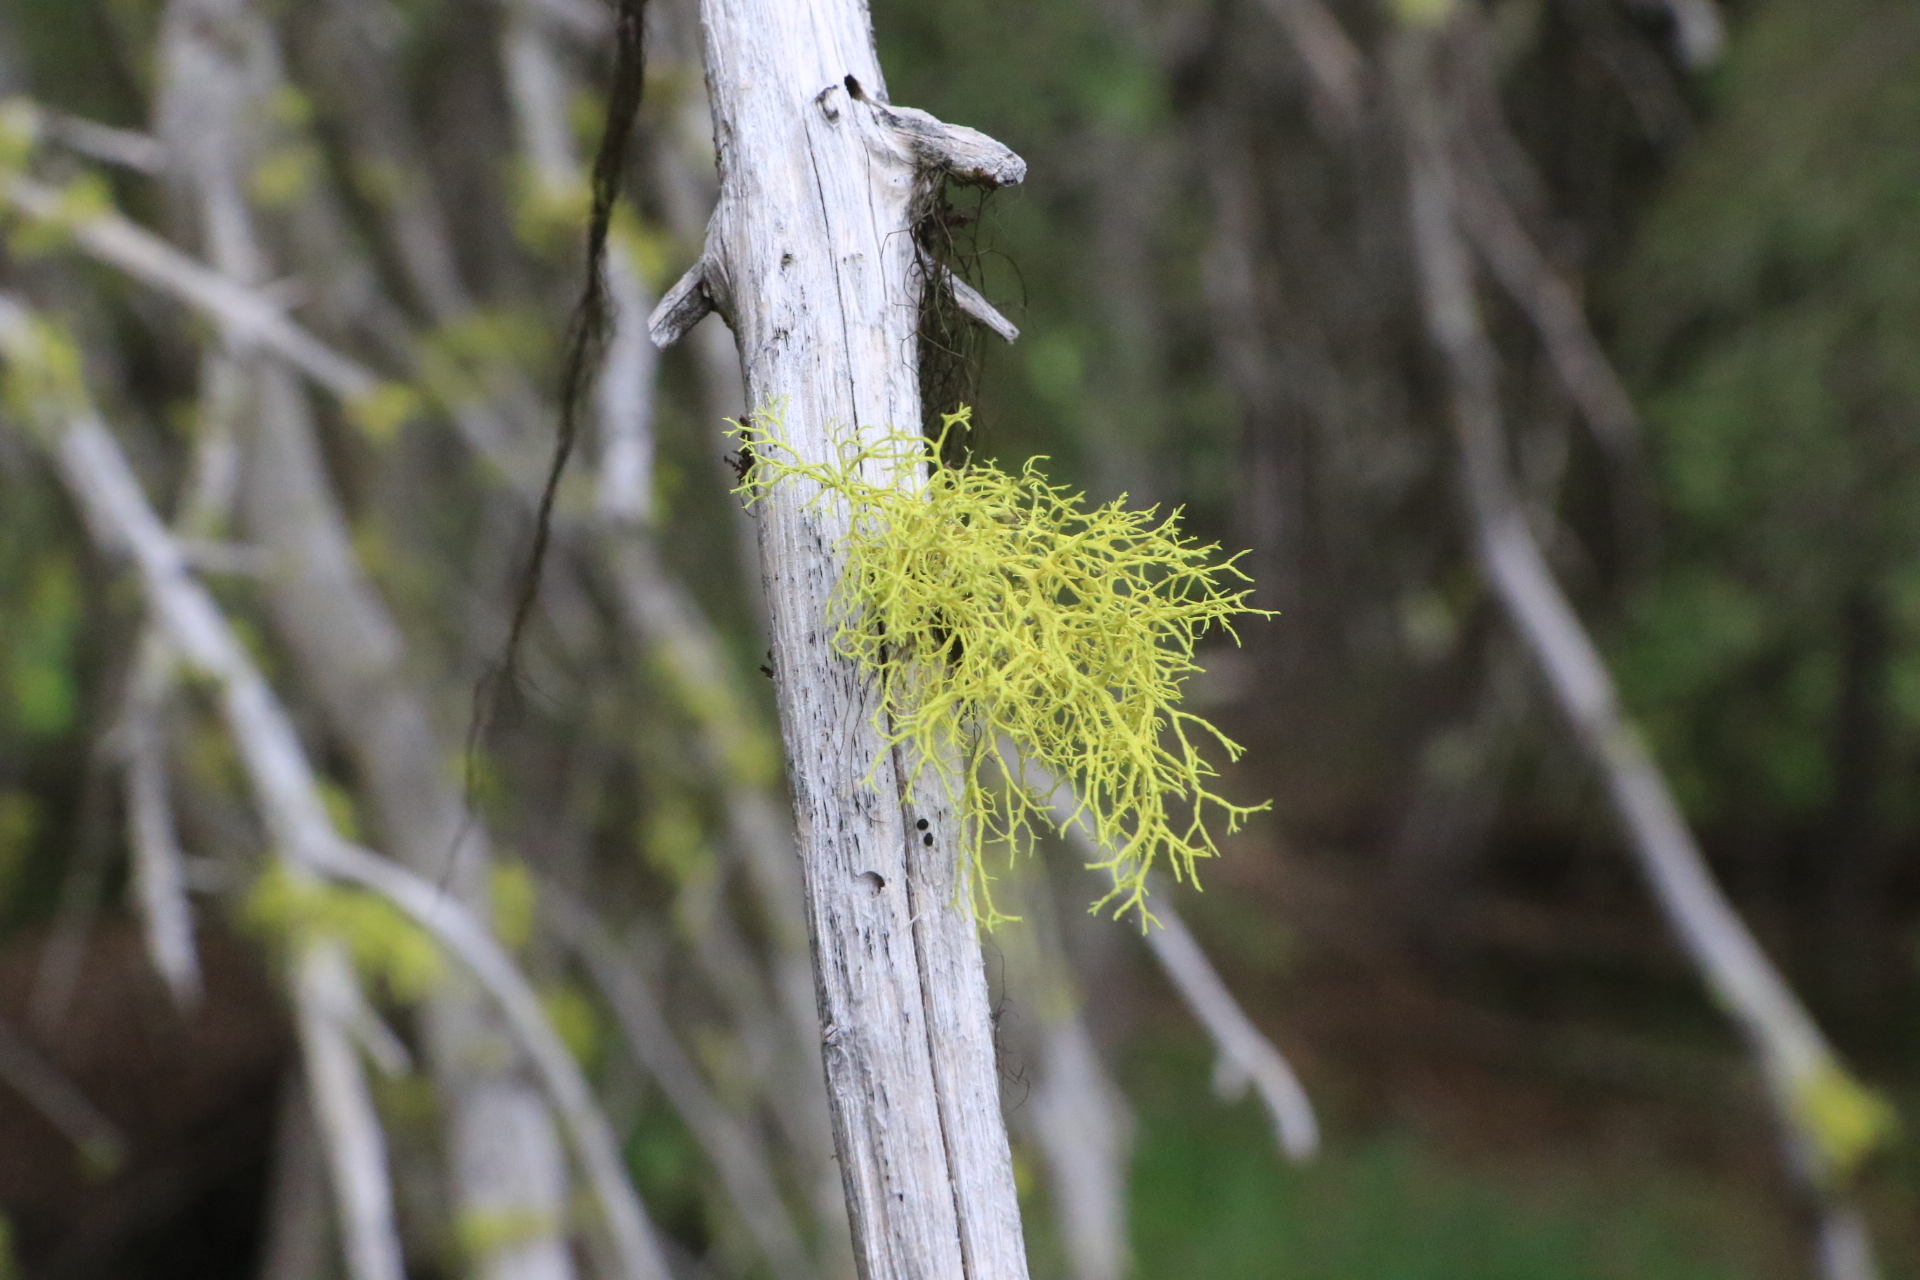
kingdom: Fungi
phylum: Ascomycota
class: Lecanoromycetes
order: Lecanorales
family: Parmeliaceae
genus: Letharia
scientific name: Letharia vulpina
